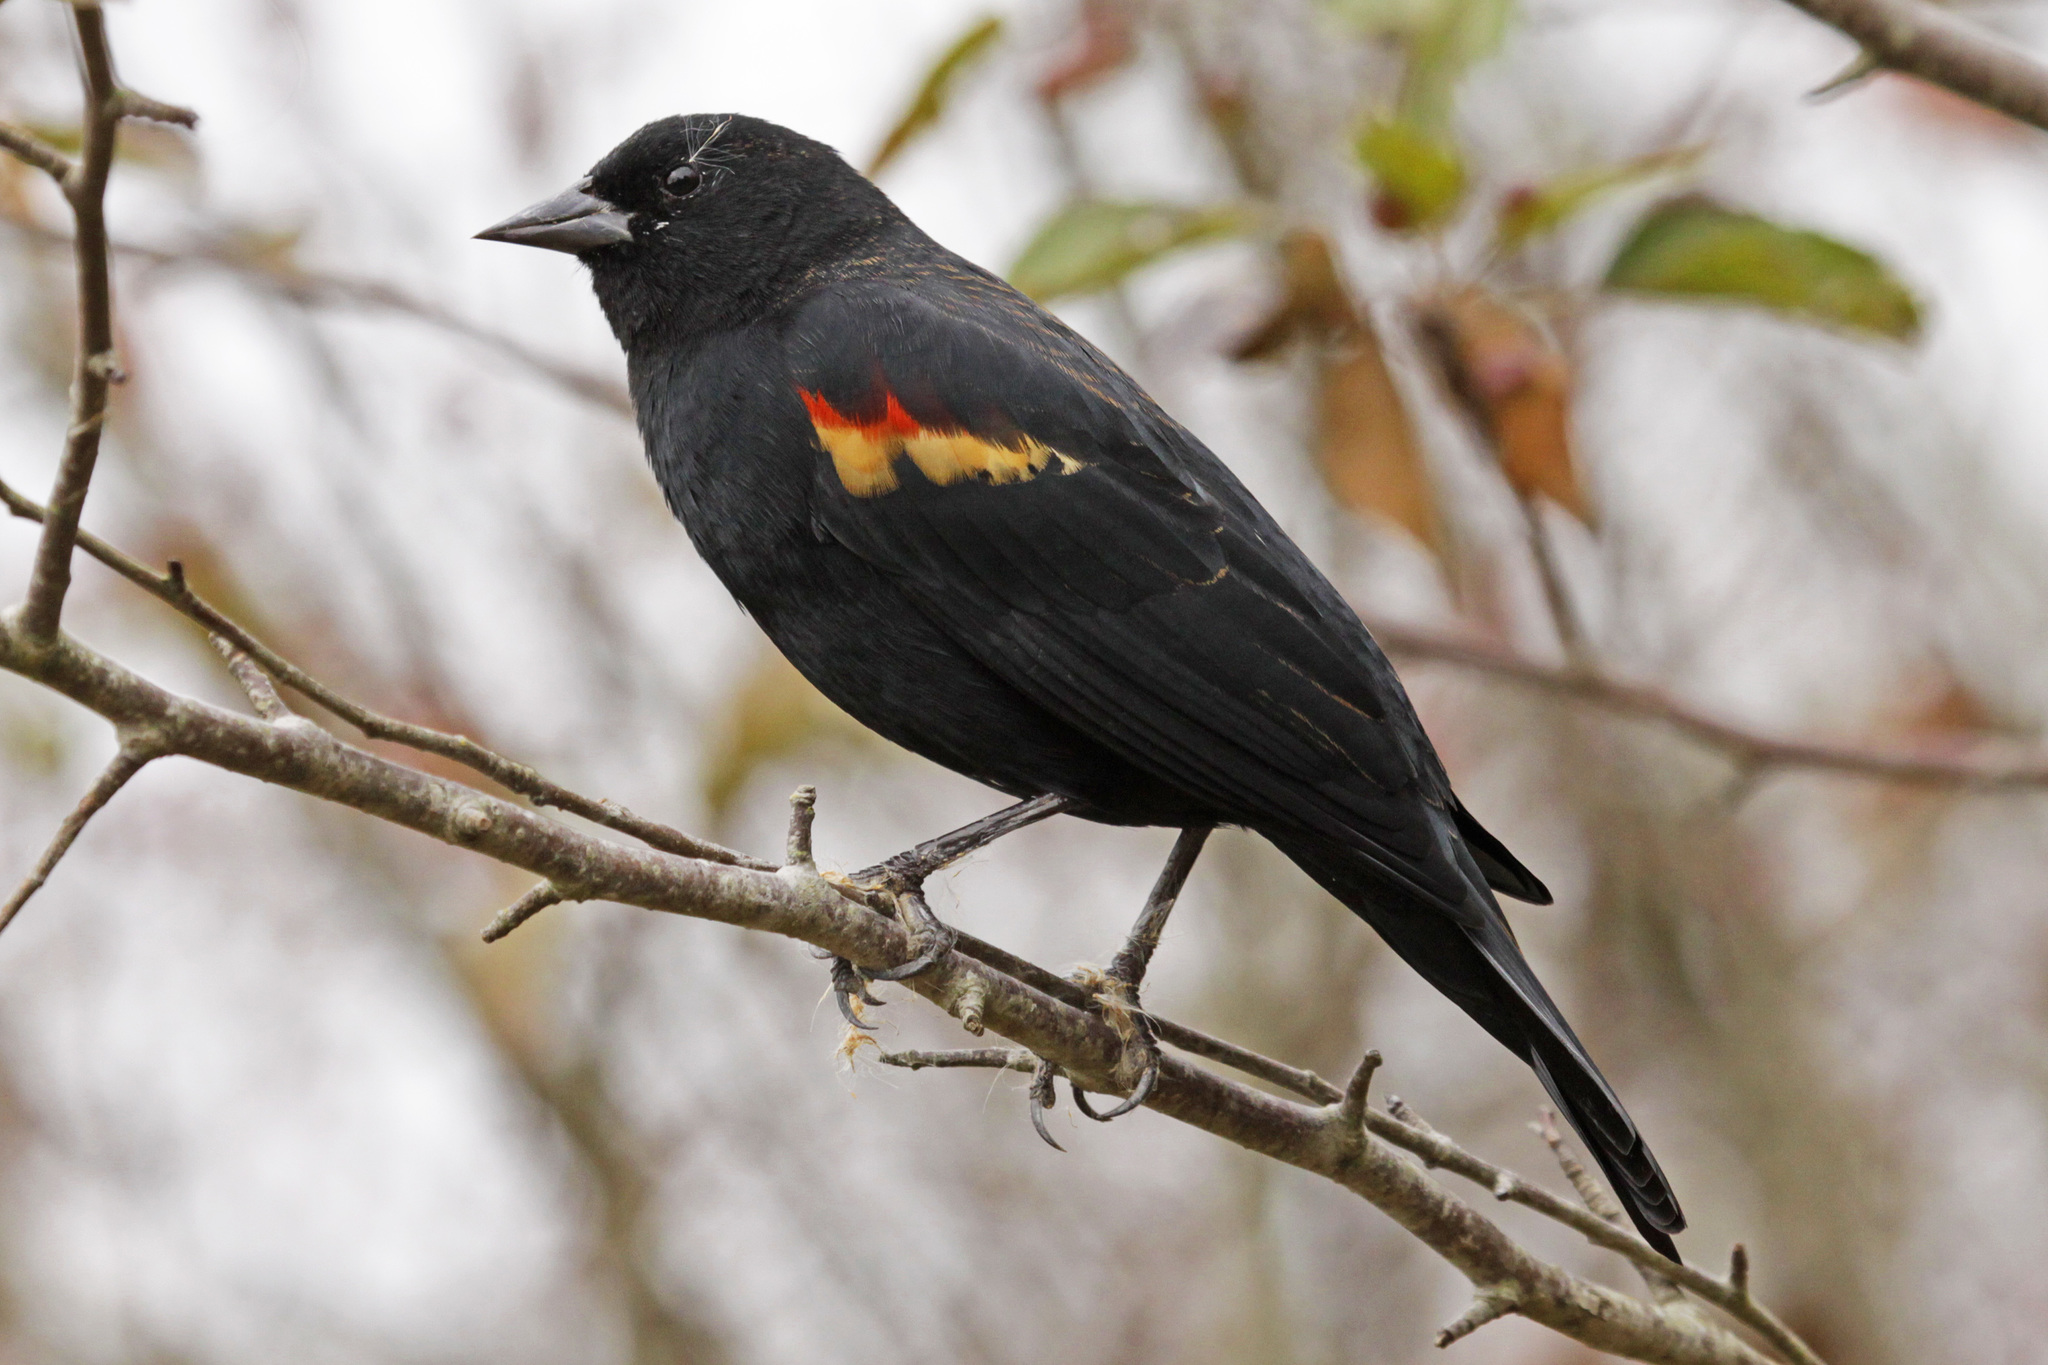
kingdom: Animalia
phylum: Chordata
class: Aves
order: Passeriformes
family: Icteridae
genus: Agelaius
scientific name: Agelaius phoeniceus
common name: Red-winged blackbird
